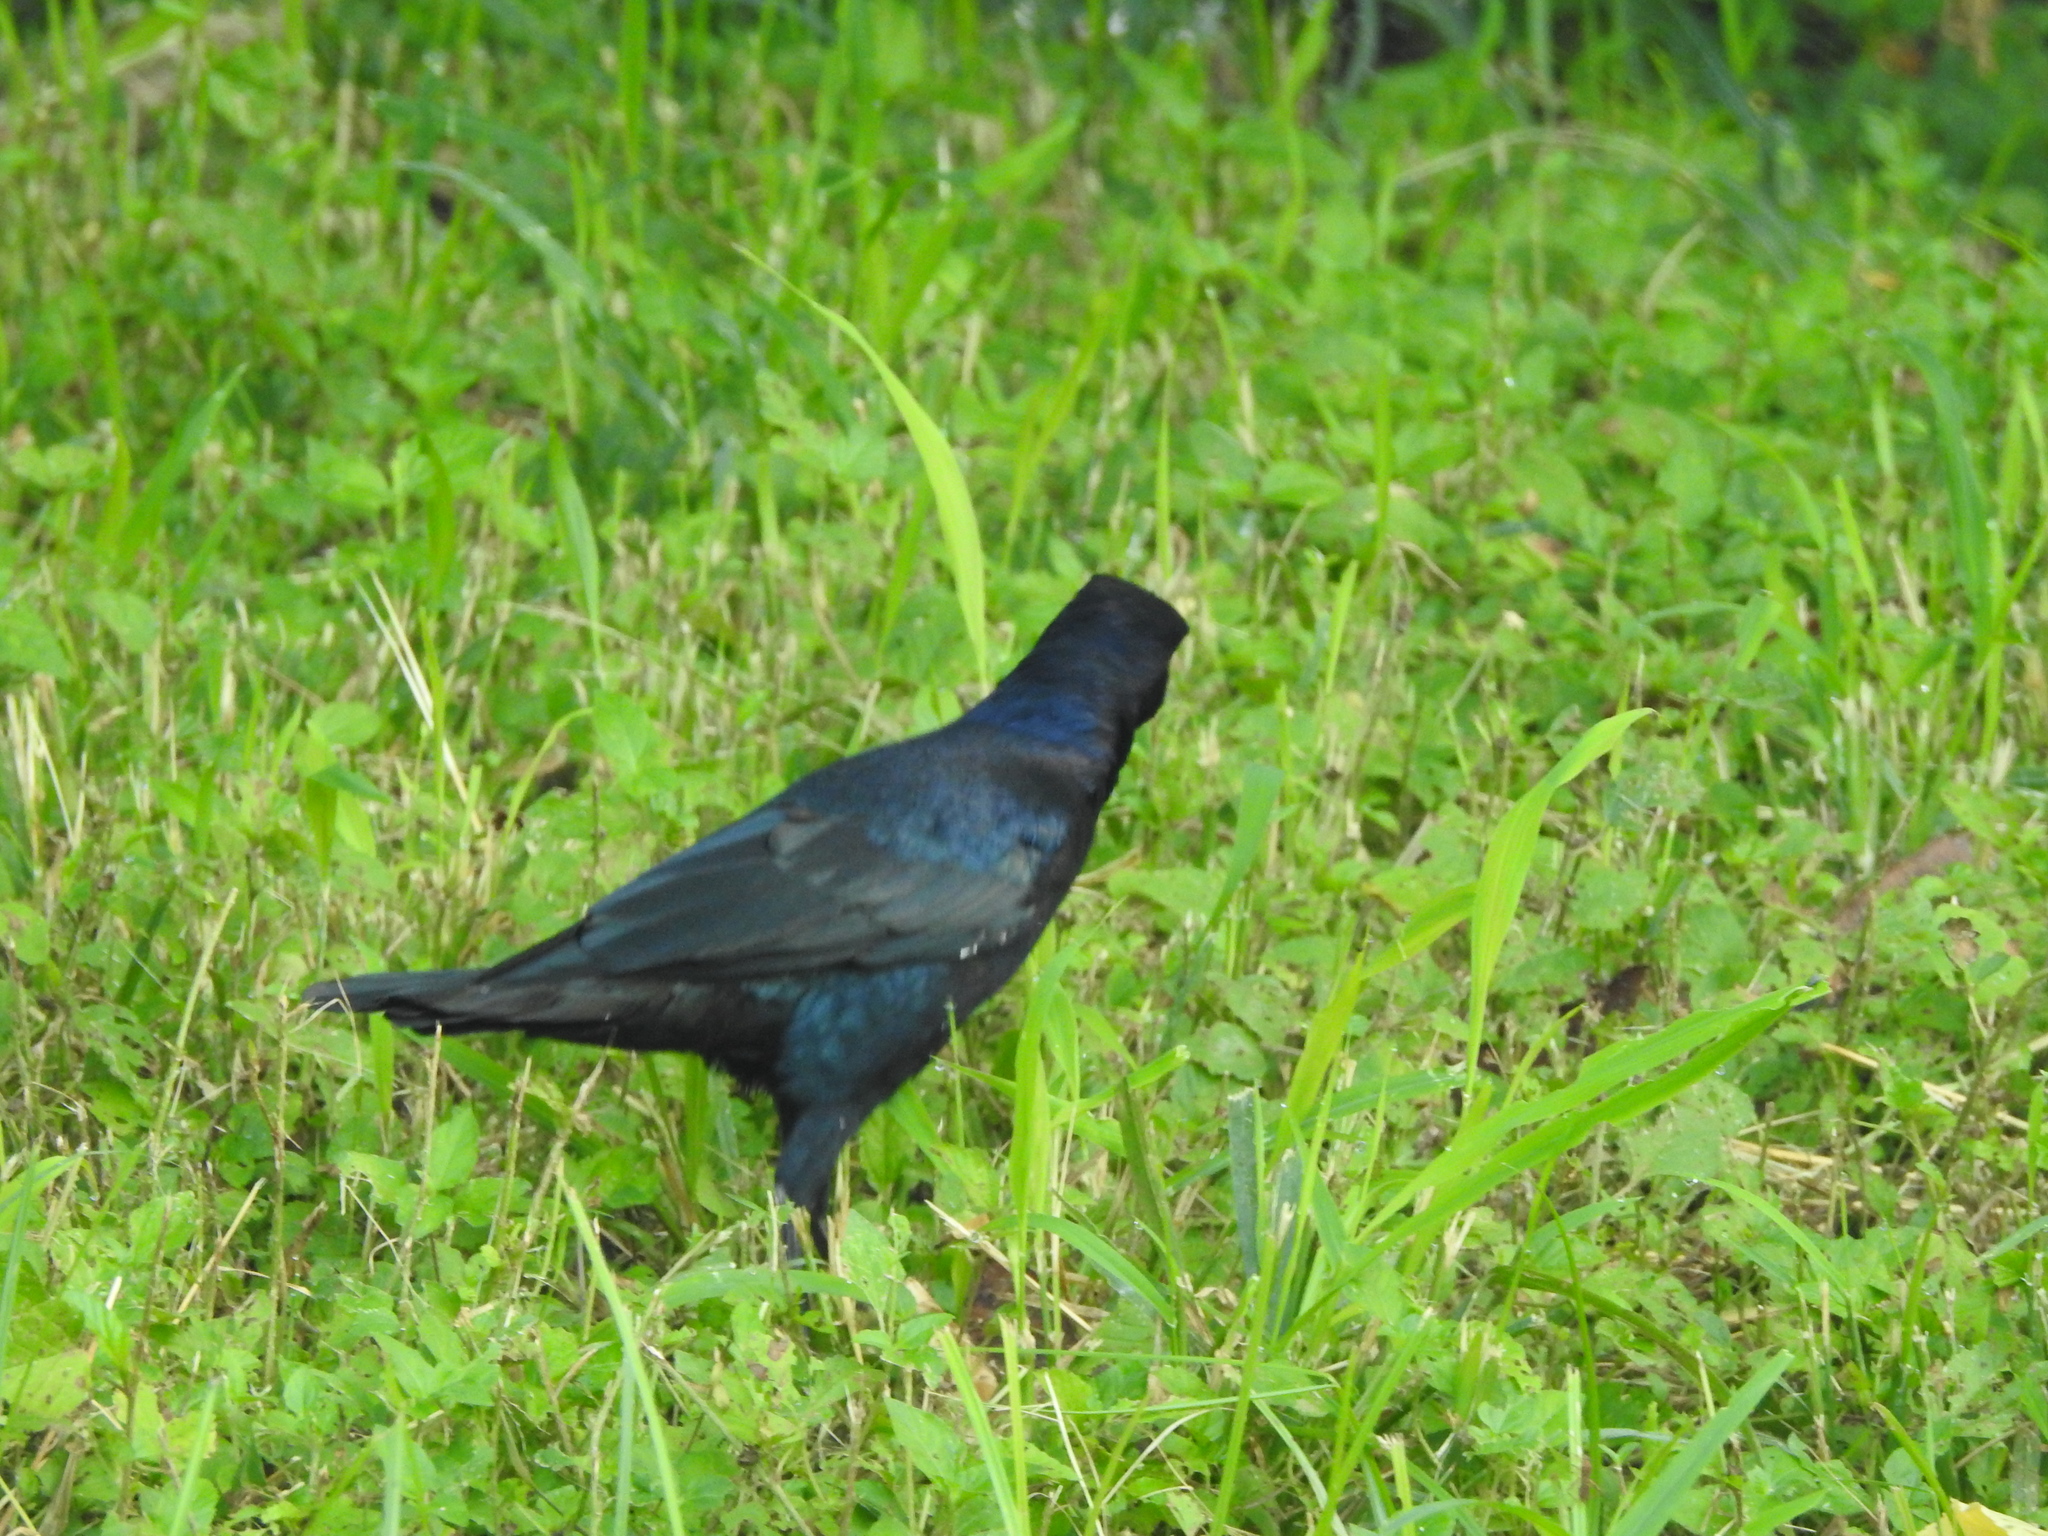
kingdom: Animalia
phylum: Chordata
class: Aves
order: Passeriformes
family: Icteridae
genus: Quiscalus
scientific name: Quiscalus mexicanus
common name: Great-tailed grackle
